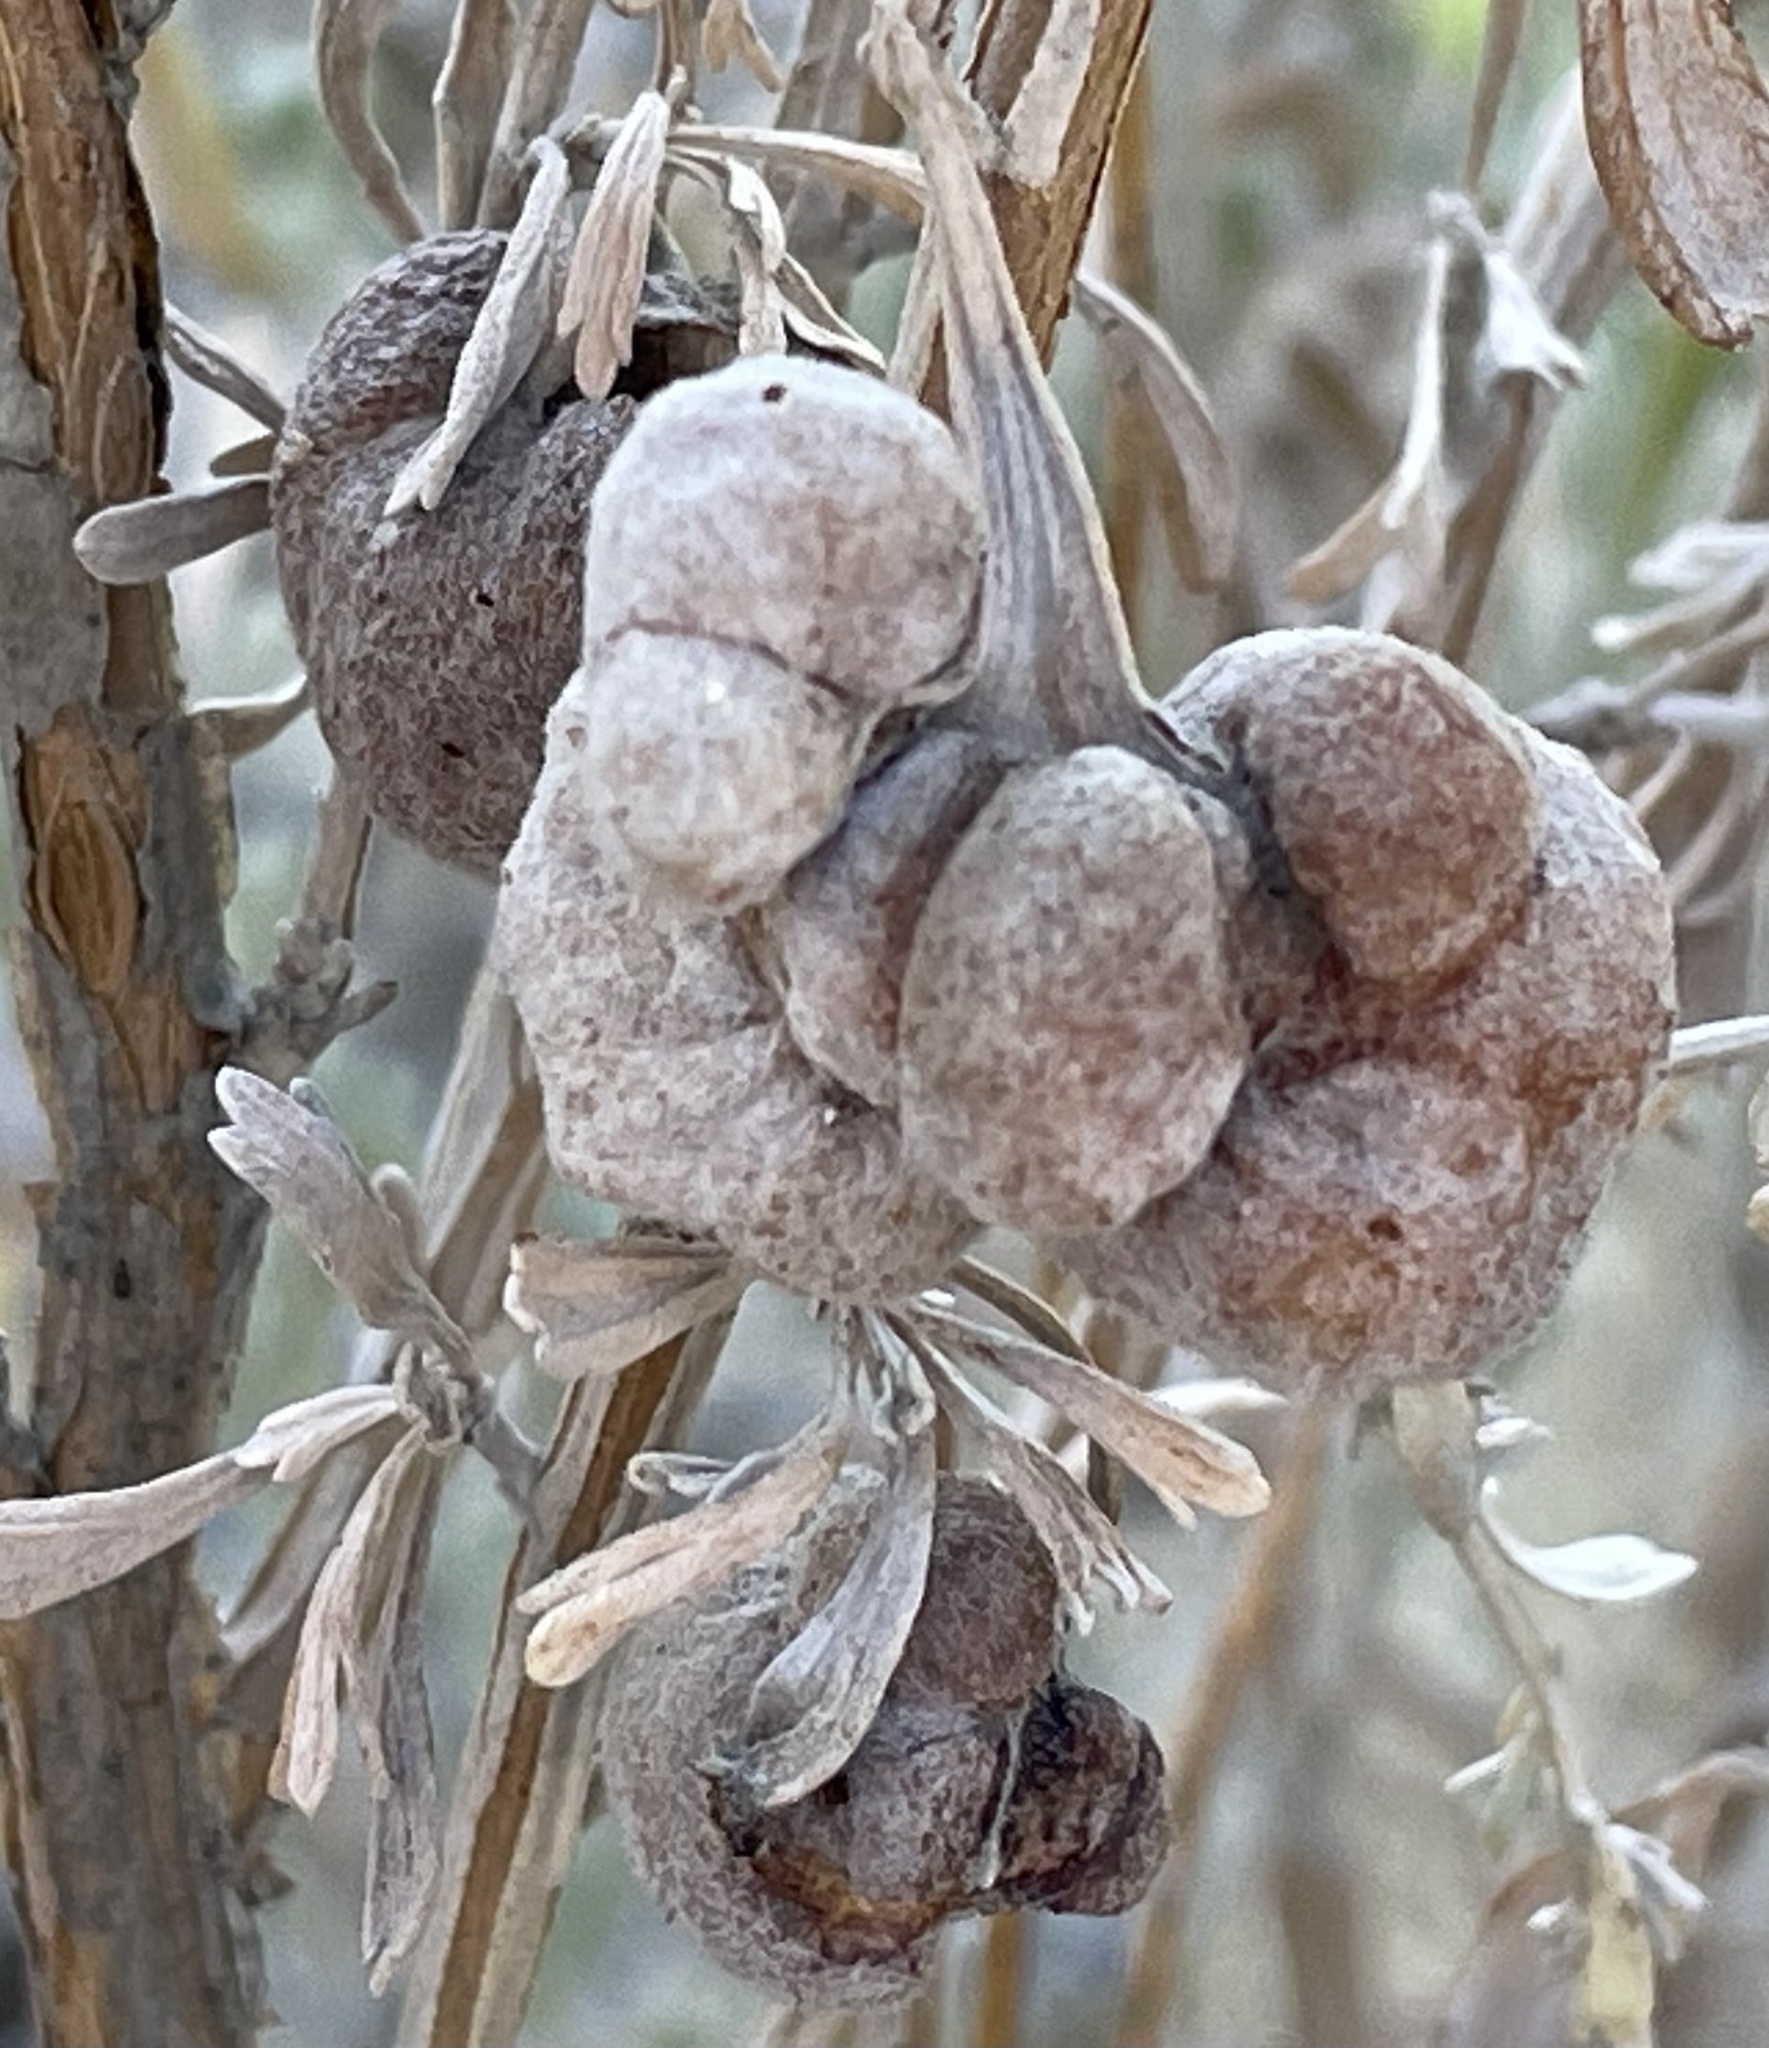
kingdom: Animalia
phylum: Arthropoda
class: Insecta
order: Diptera
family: Cecidomyiidae
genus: Rhopalomyia
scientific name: Rhopalomyia pomum
